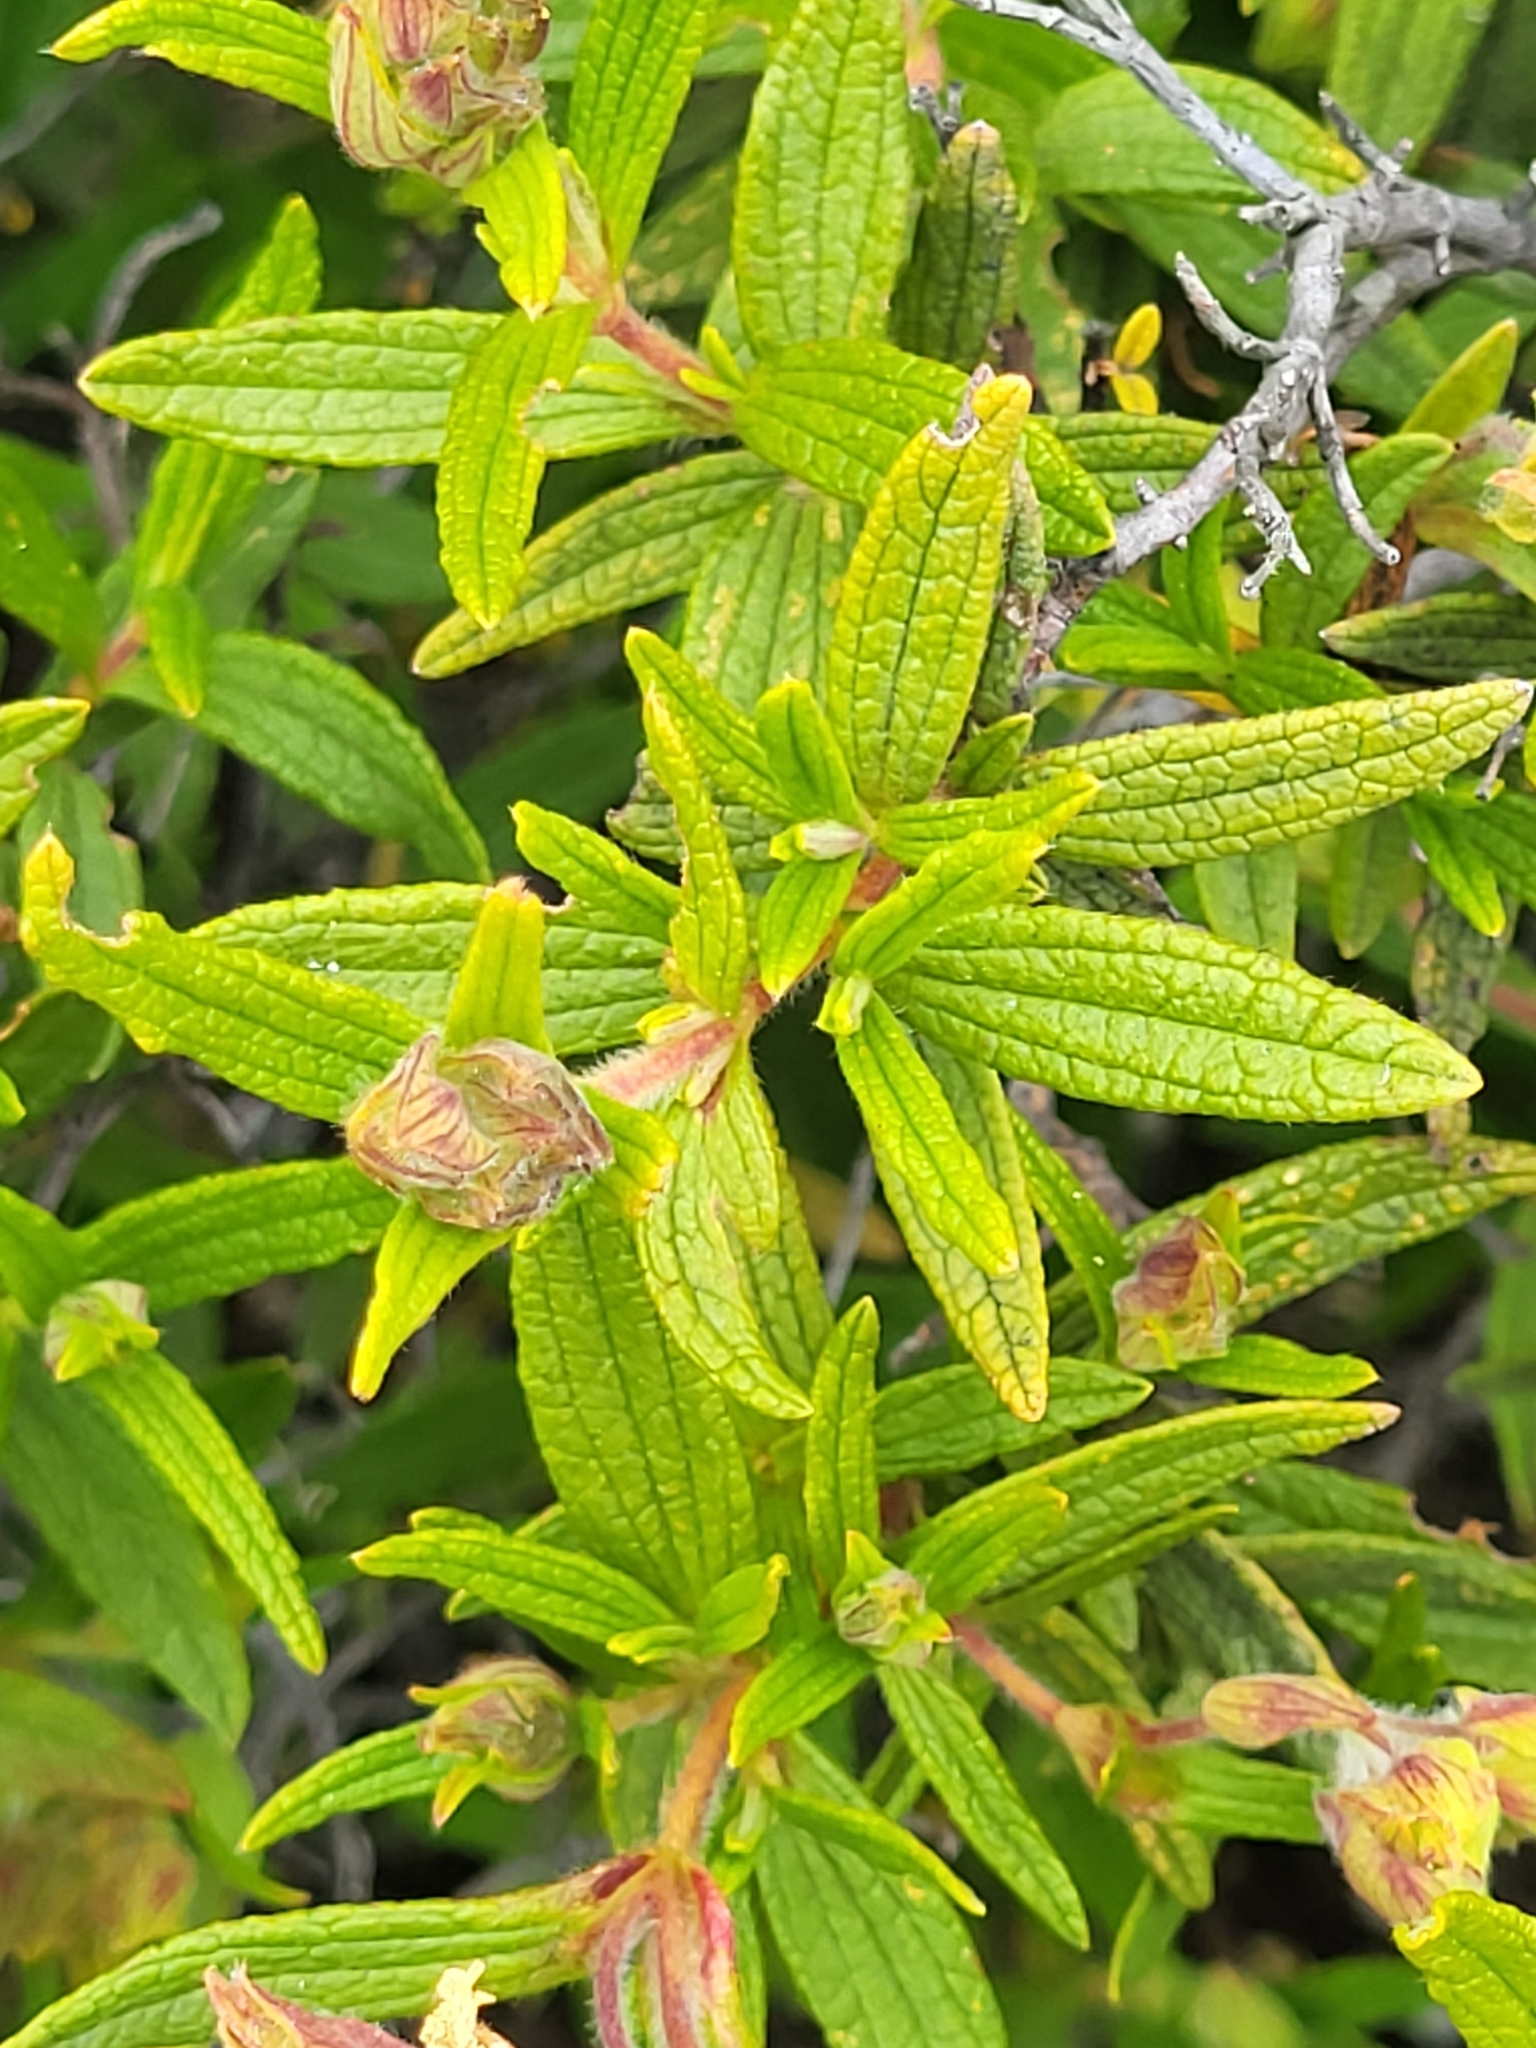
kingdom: Plantae
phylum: Tracheophyta
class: Magnoliopsida
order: Malvales
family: Cistaceae
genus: Cistus
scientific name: Cistus monspeliensis
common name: Montpelier cistus
